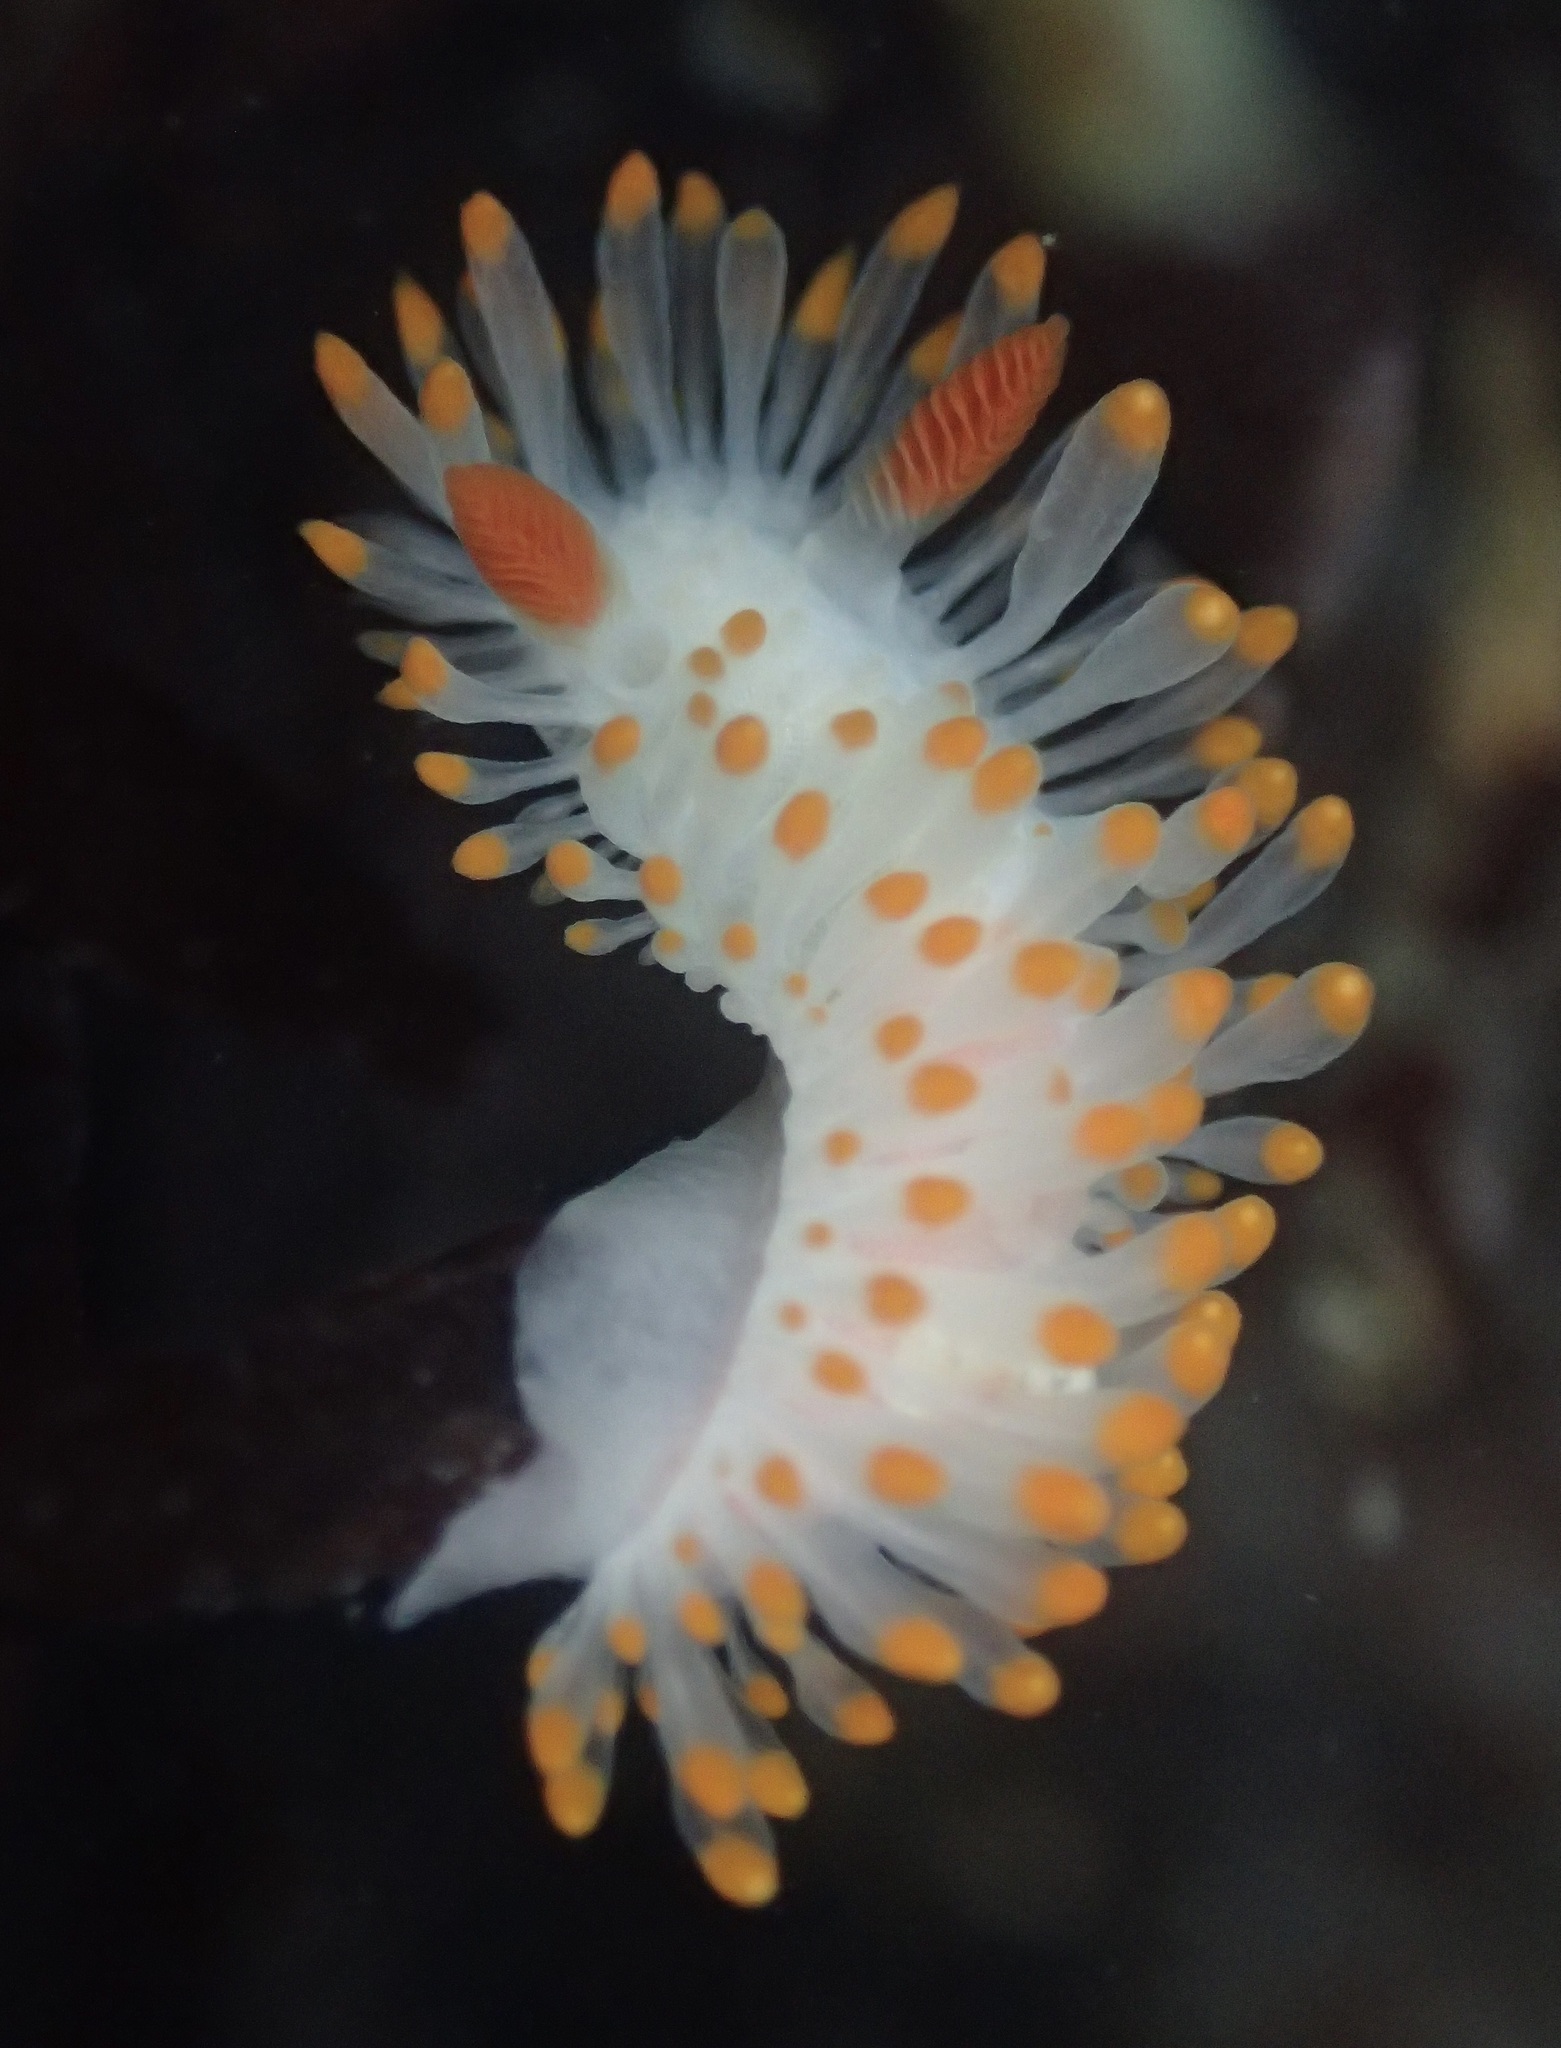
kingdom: Animalia
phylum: Mollusca
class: Gastropoda
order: Nudibranchia
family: Polyceridae
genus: Limacia
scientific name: Limacia cockerelli
